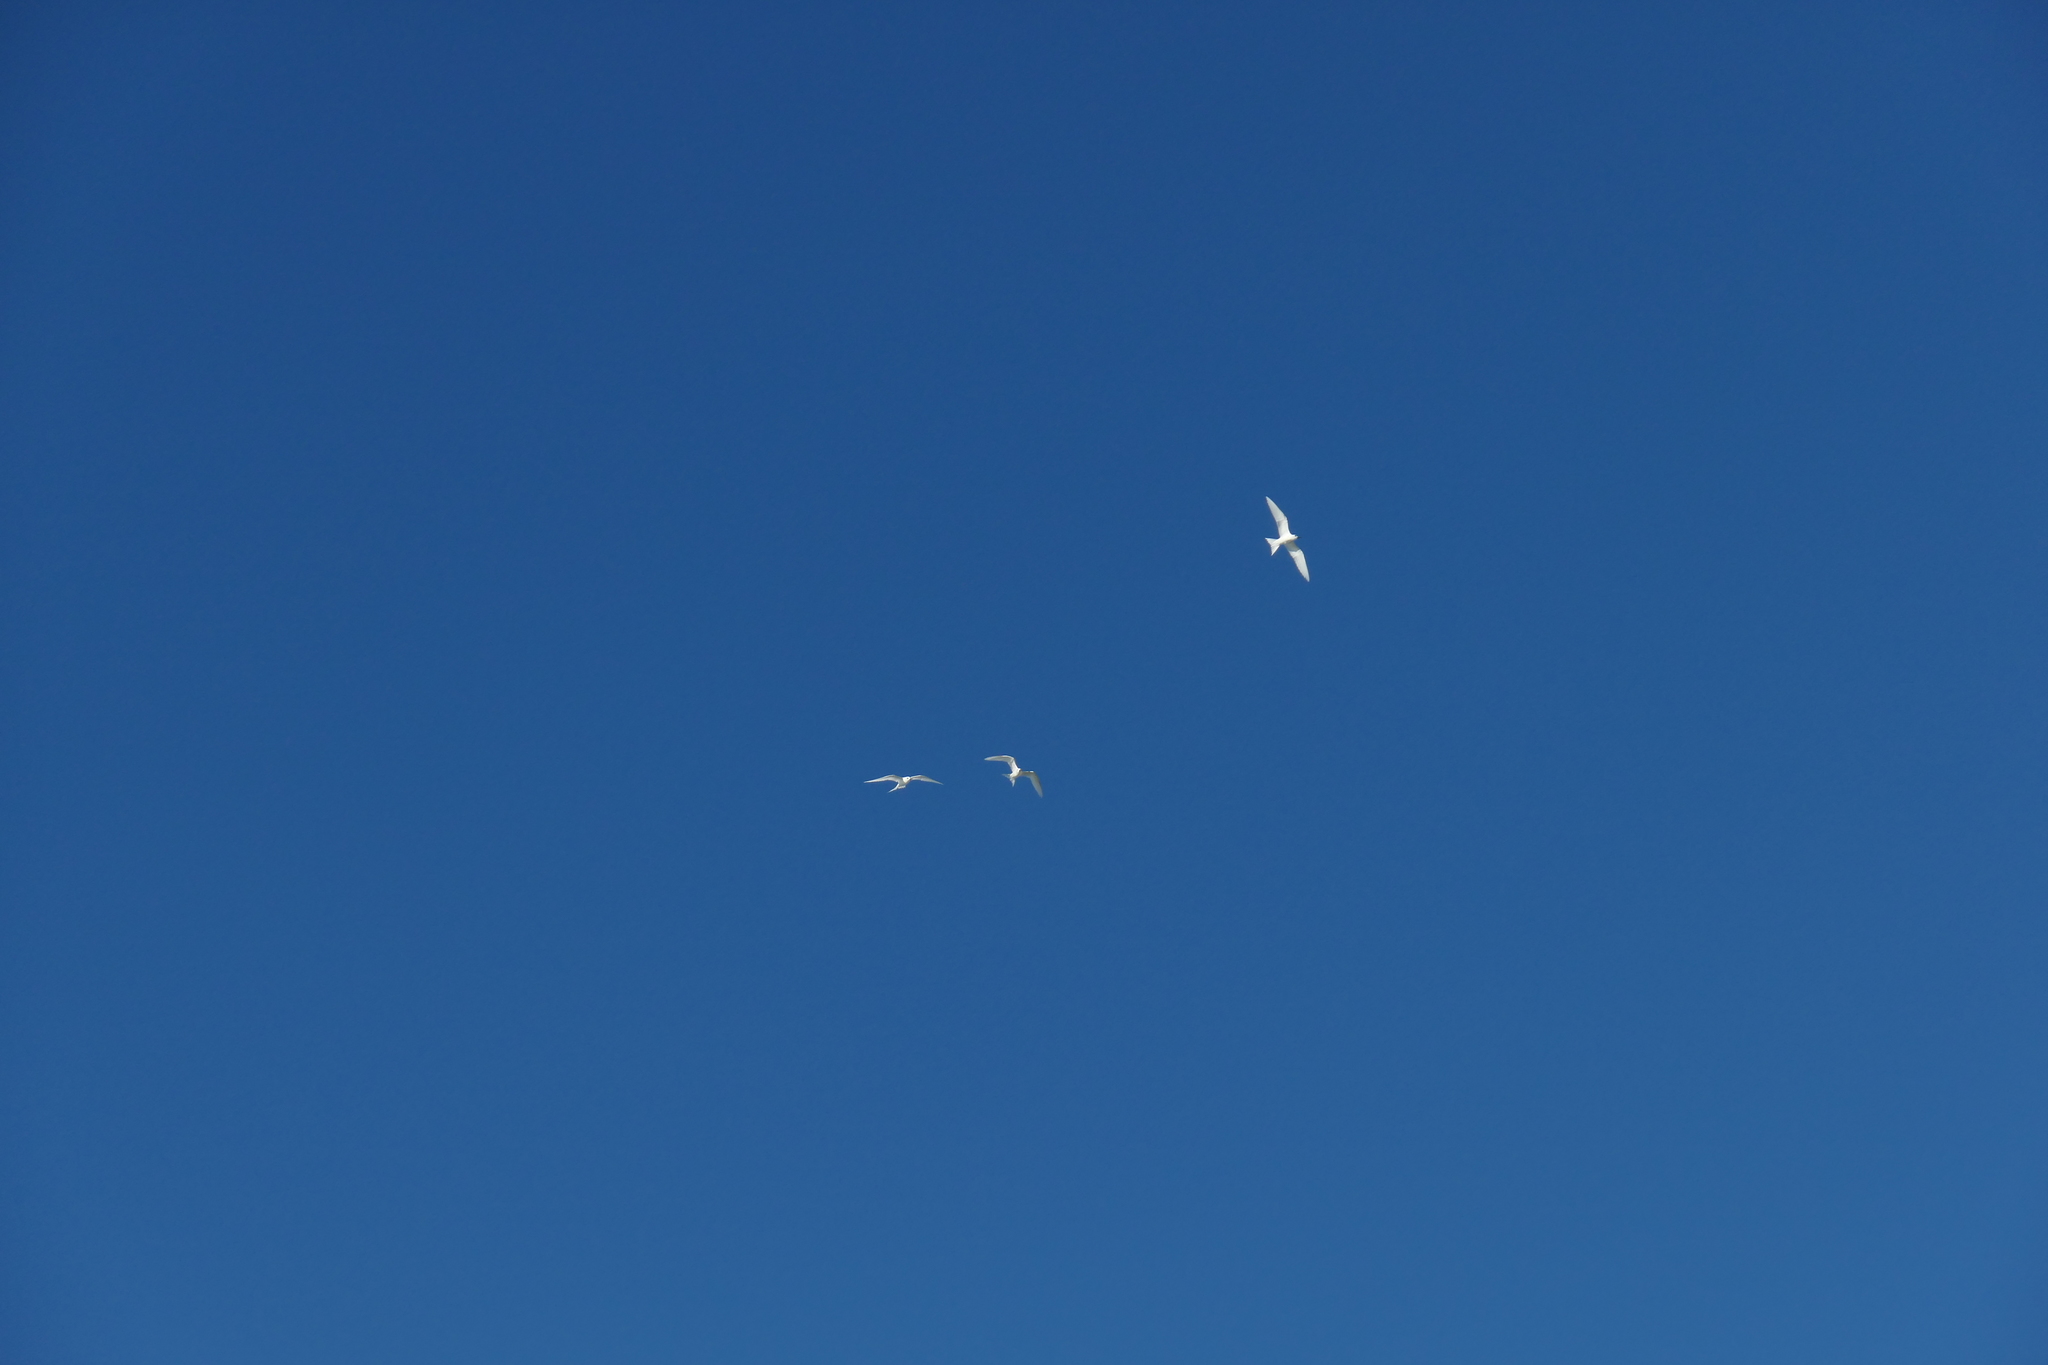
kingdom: Animalia
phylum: Chordata
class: Aves
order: Charadriiformes
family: Laridae
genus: Gygis
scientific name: Gygis alba
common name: White tern
